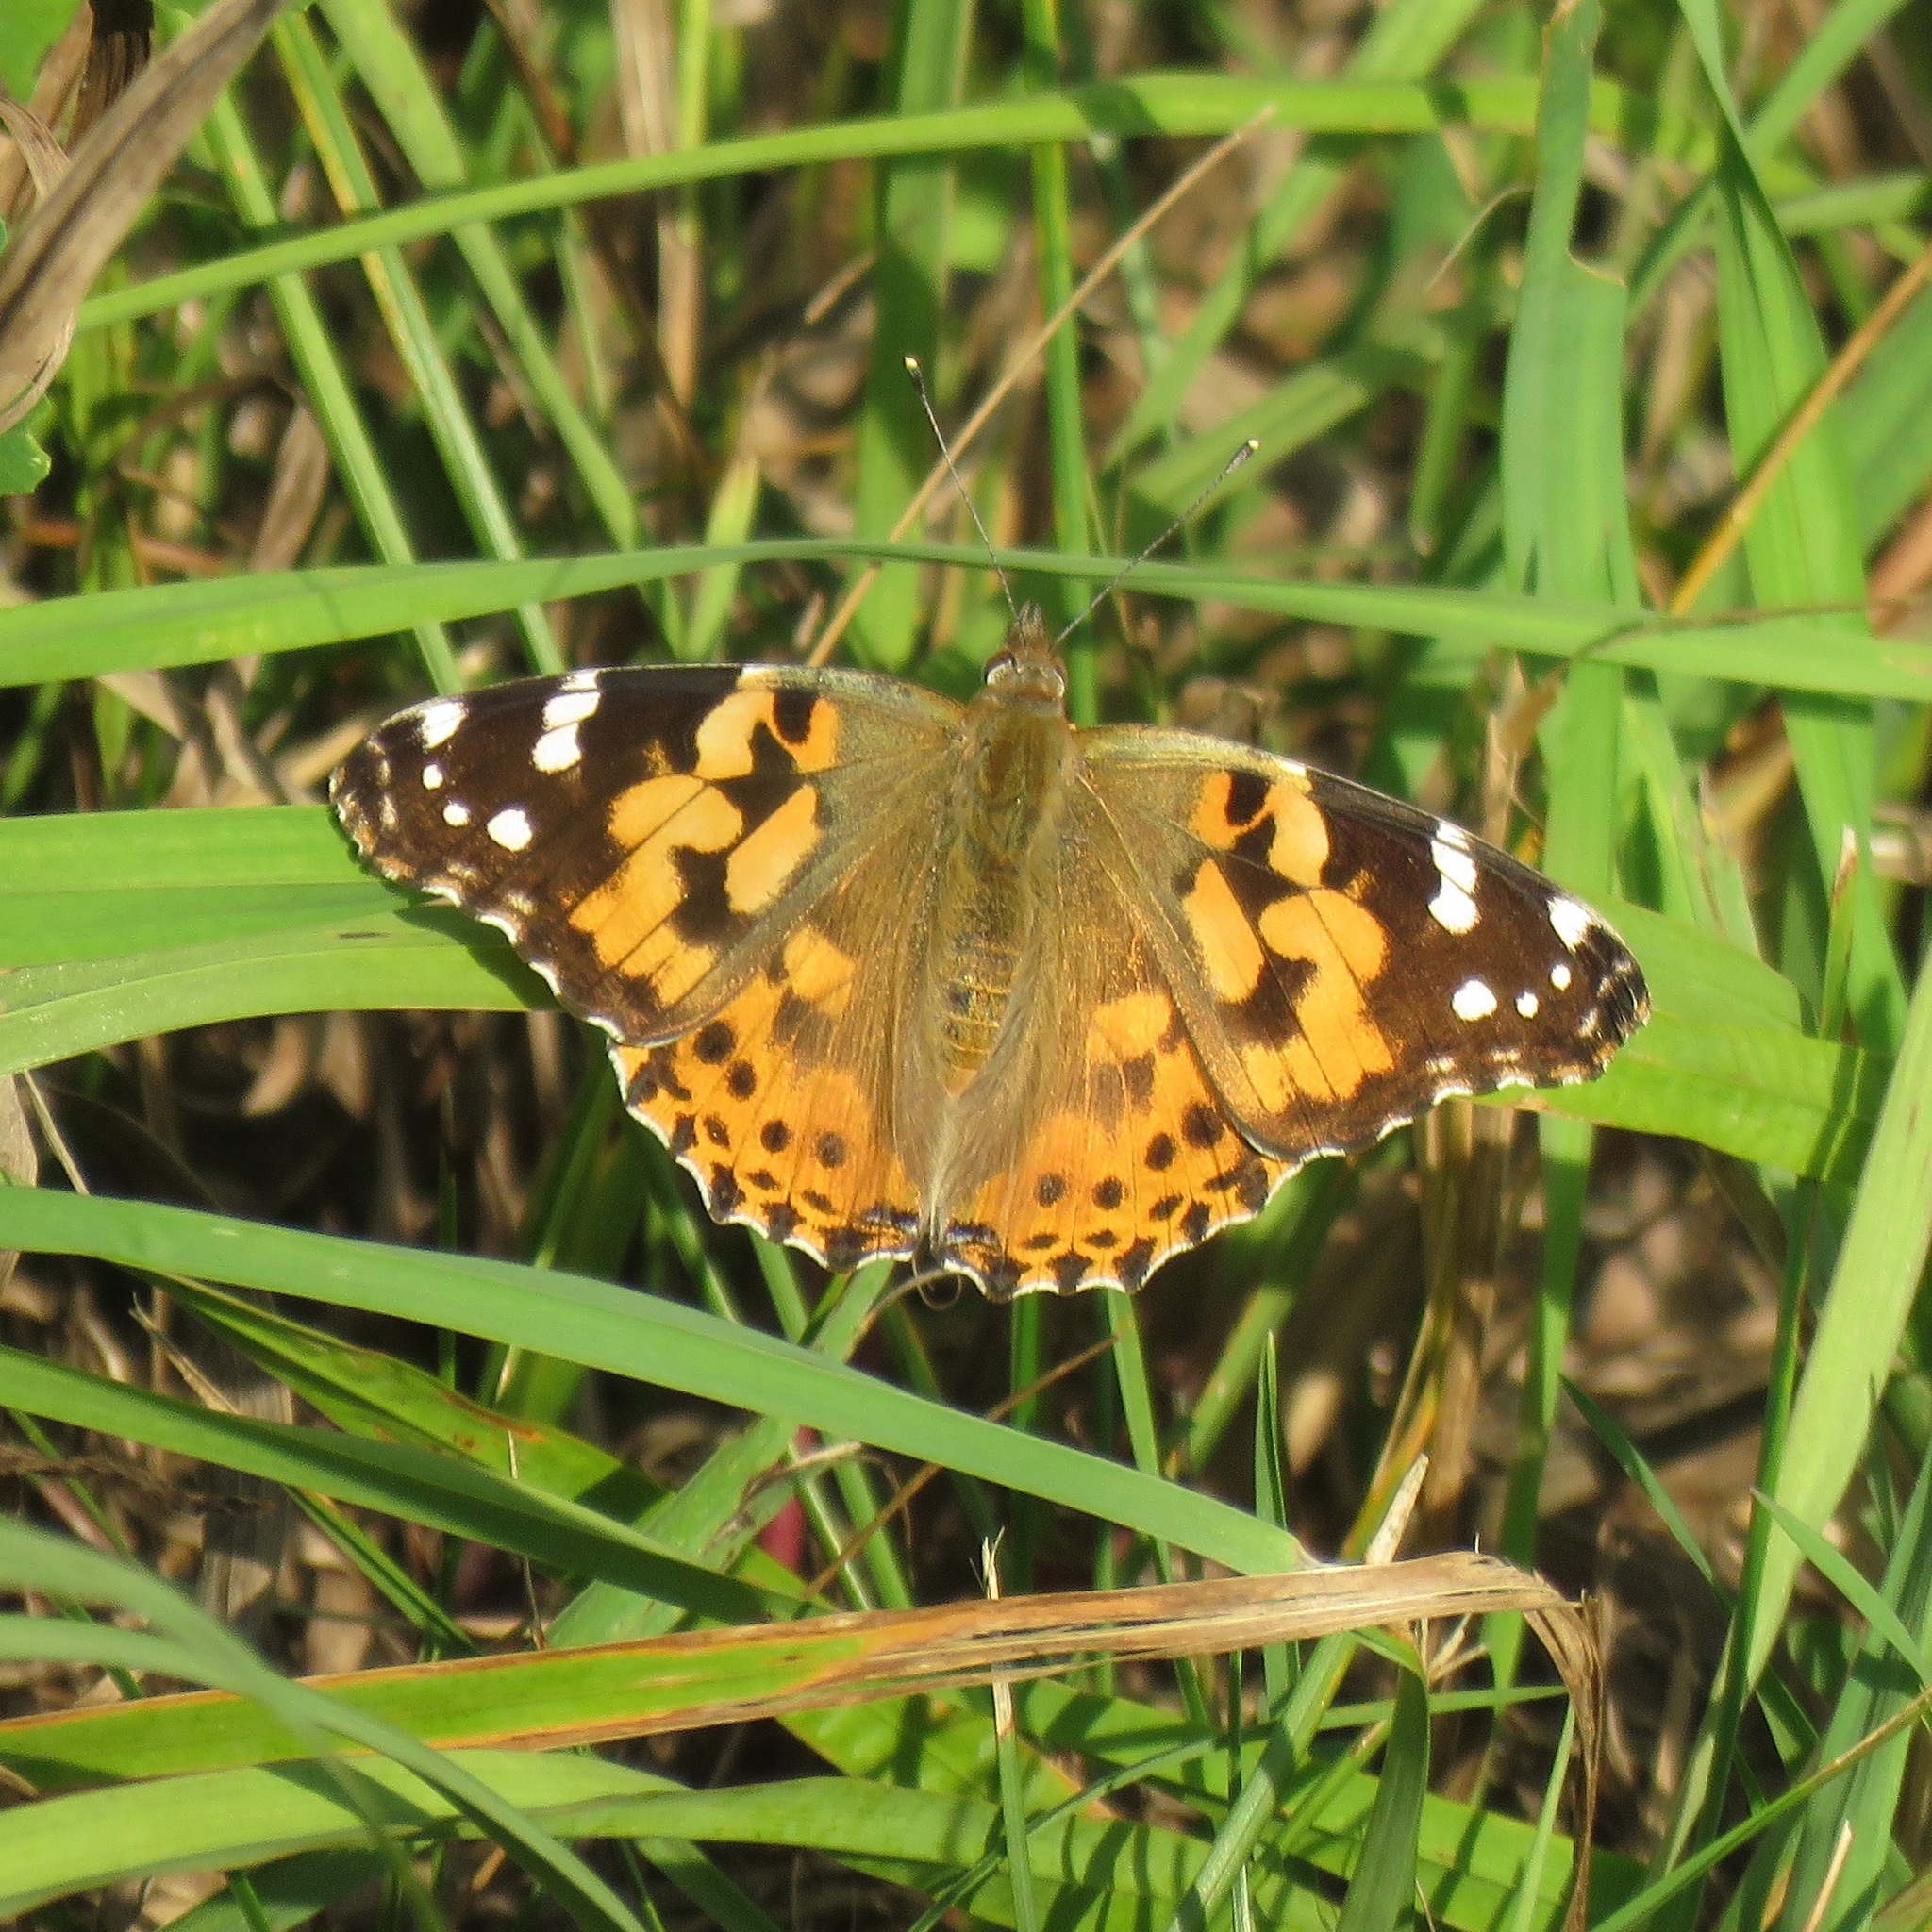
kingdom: Animalia
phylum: Arthropoda
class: Insecta
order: Lepidoptera
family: Nymphalidae
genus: Vanessa
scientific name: Vanessa cardui
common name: Painted lady
